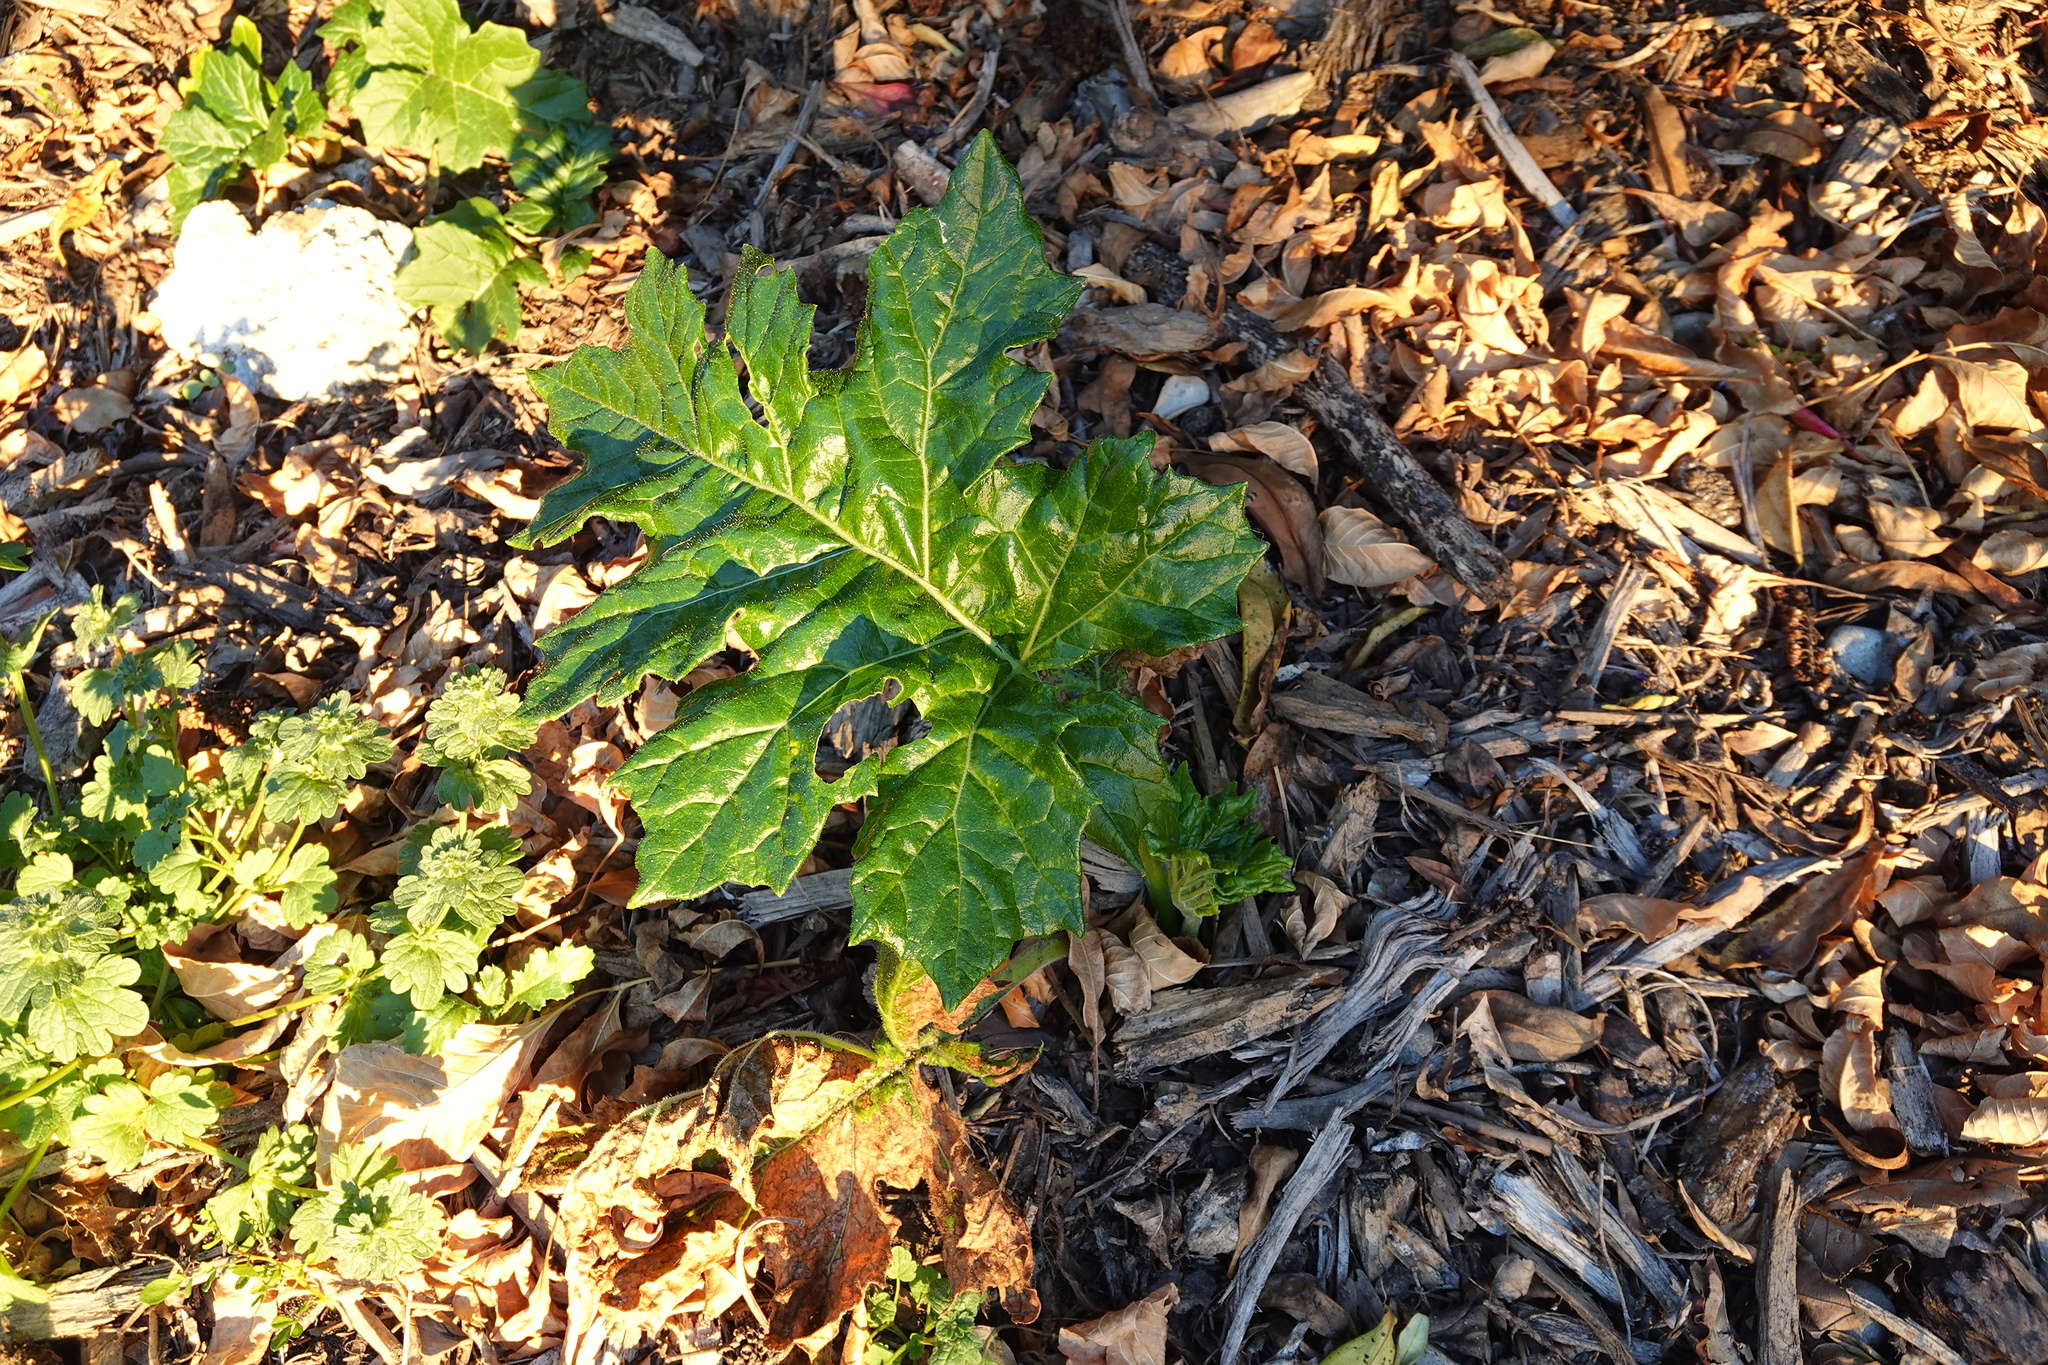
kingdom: Plantae
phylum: Tracheophyta
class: Magnoliopsida
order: Lamiales
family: Acanthaceae
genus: Acanthus
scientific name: Acanthus mollis
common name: Bear's-breech
